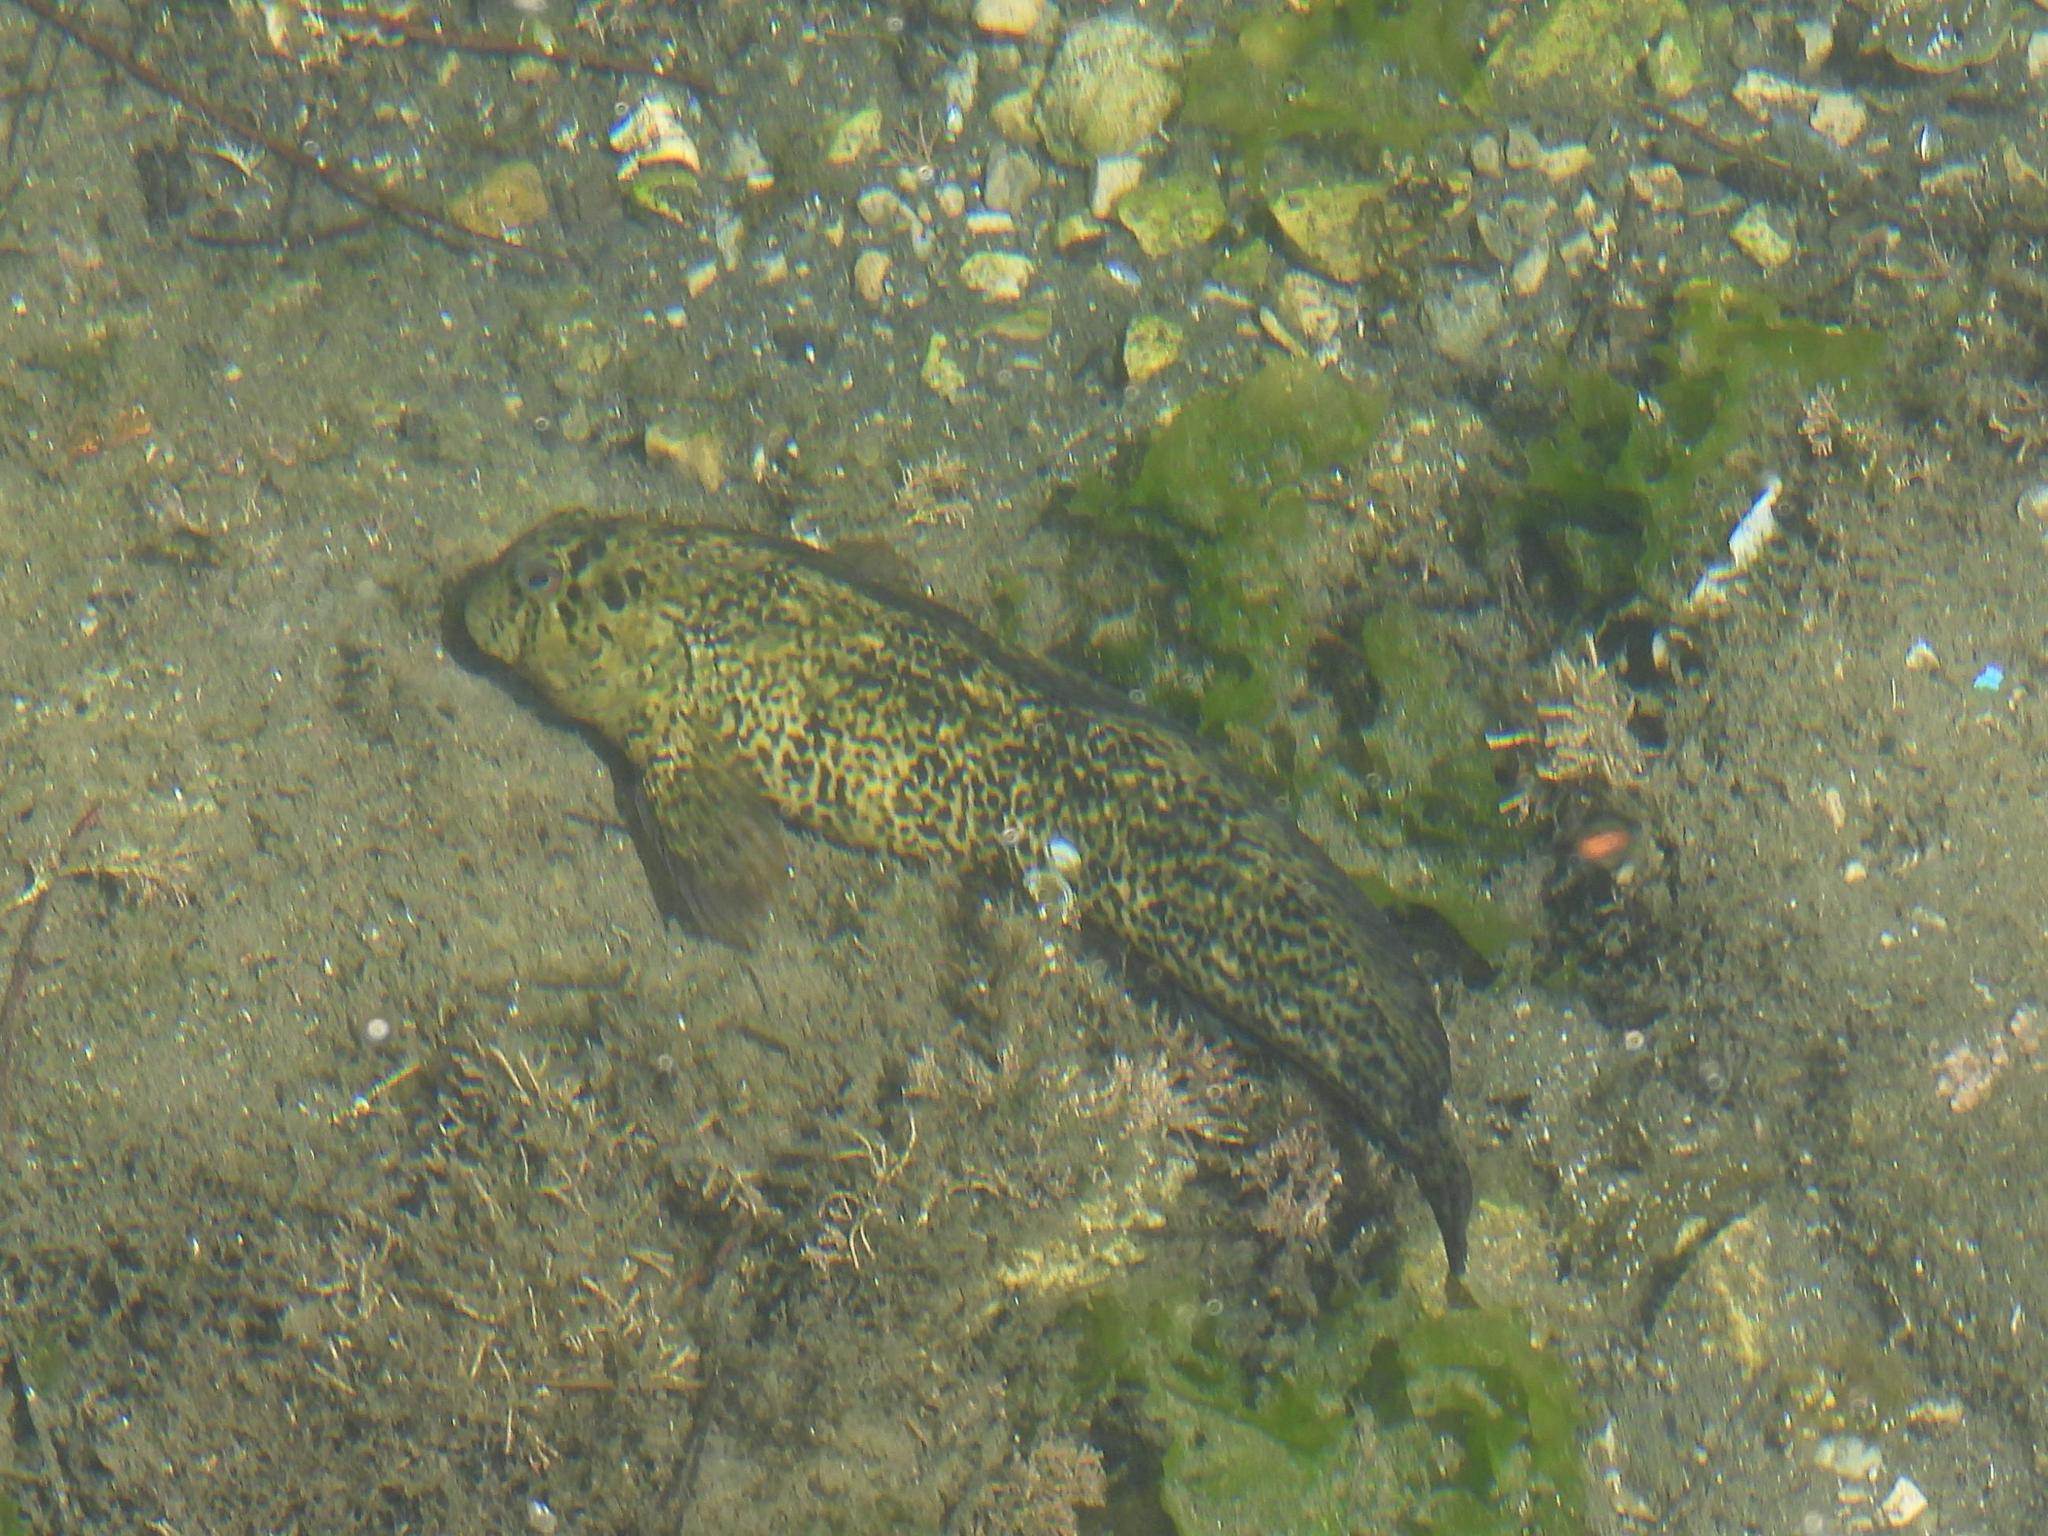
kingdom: Animalia
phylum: Chordata
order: Perciformes
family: Blenniidae
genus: Parablennius
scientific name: Parablennius sanguinolentus
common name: Black sea blenny
